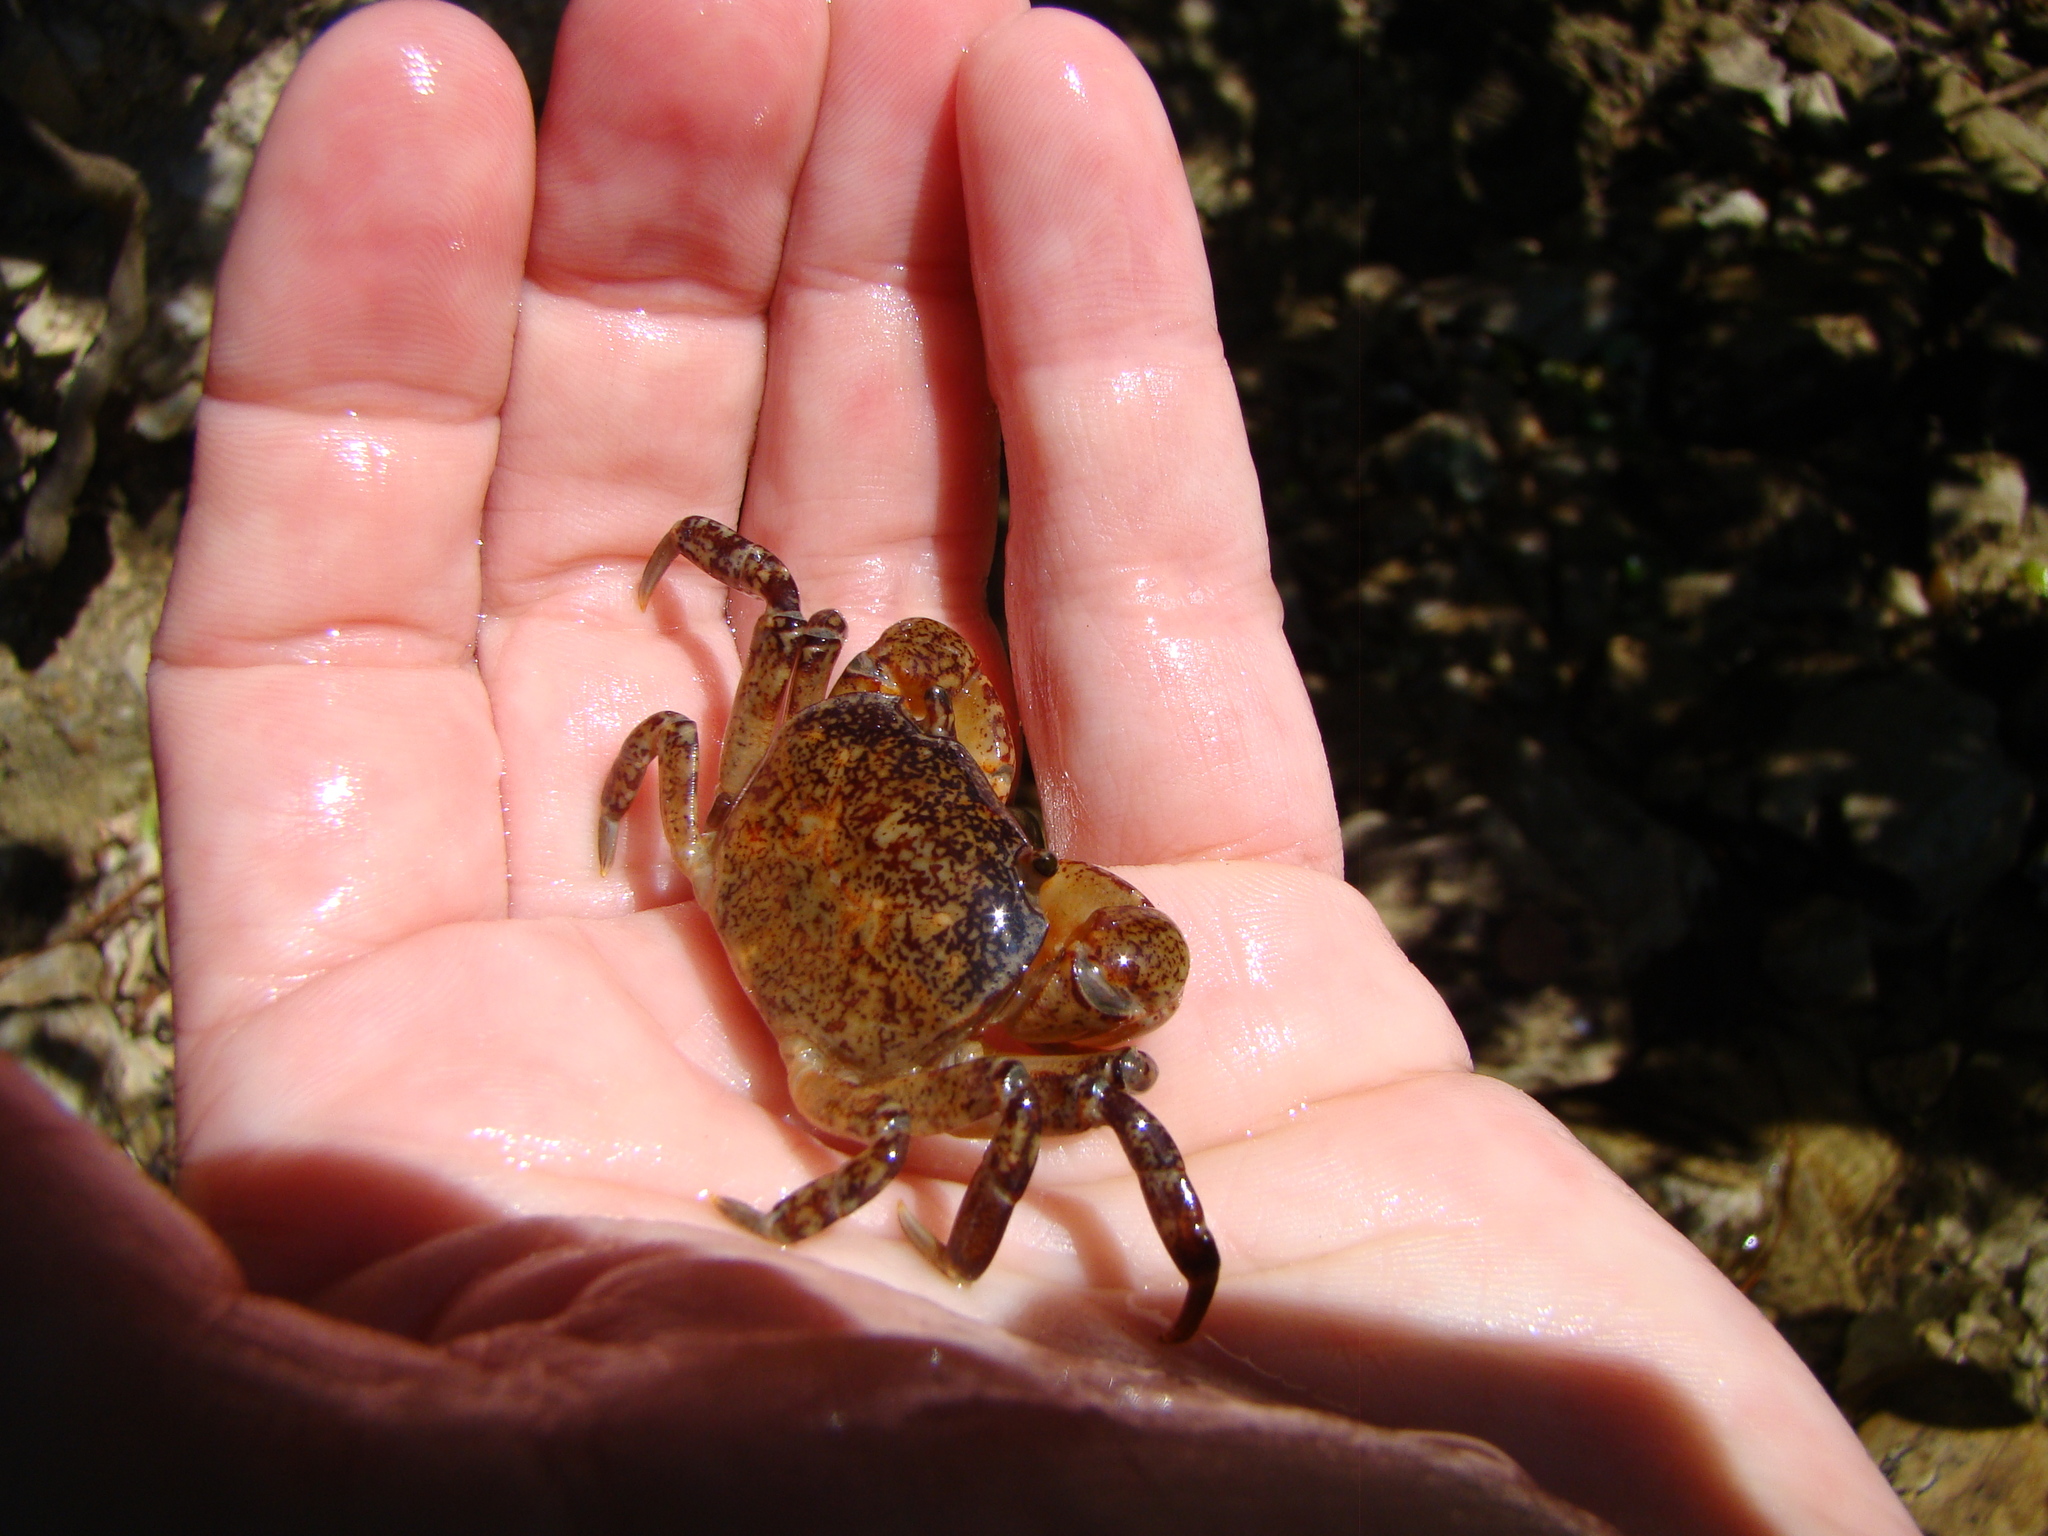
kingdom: Animalia
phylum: Arthropoda
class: Malacostraca
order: Decapoda
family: Varunidae
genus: Cyclograpsus
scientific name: Cyclograpsus lavauxi
